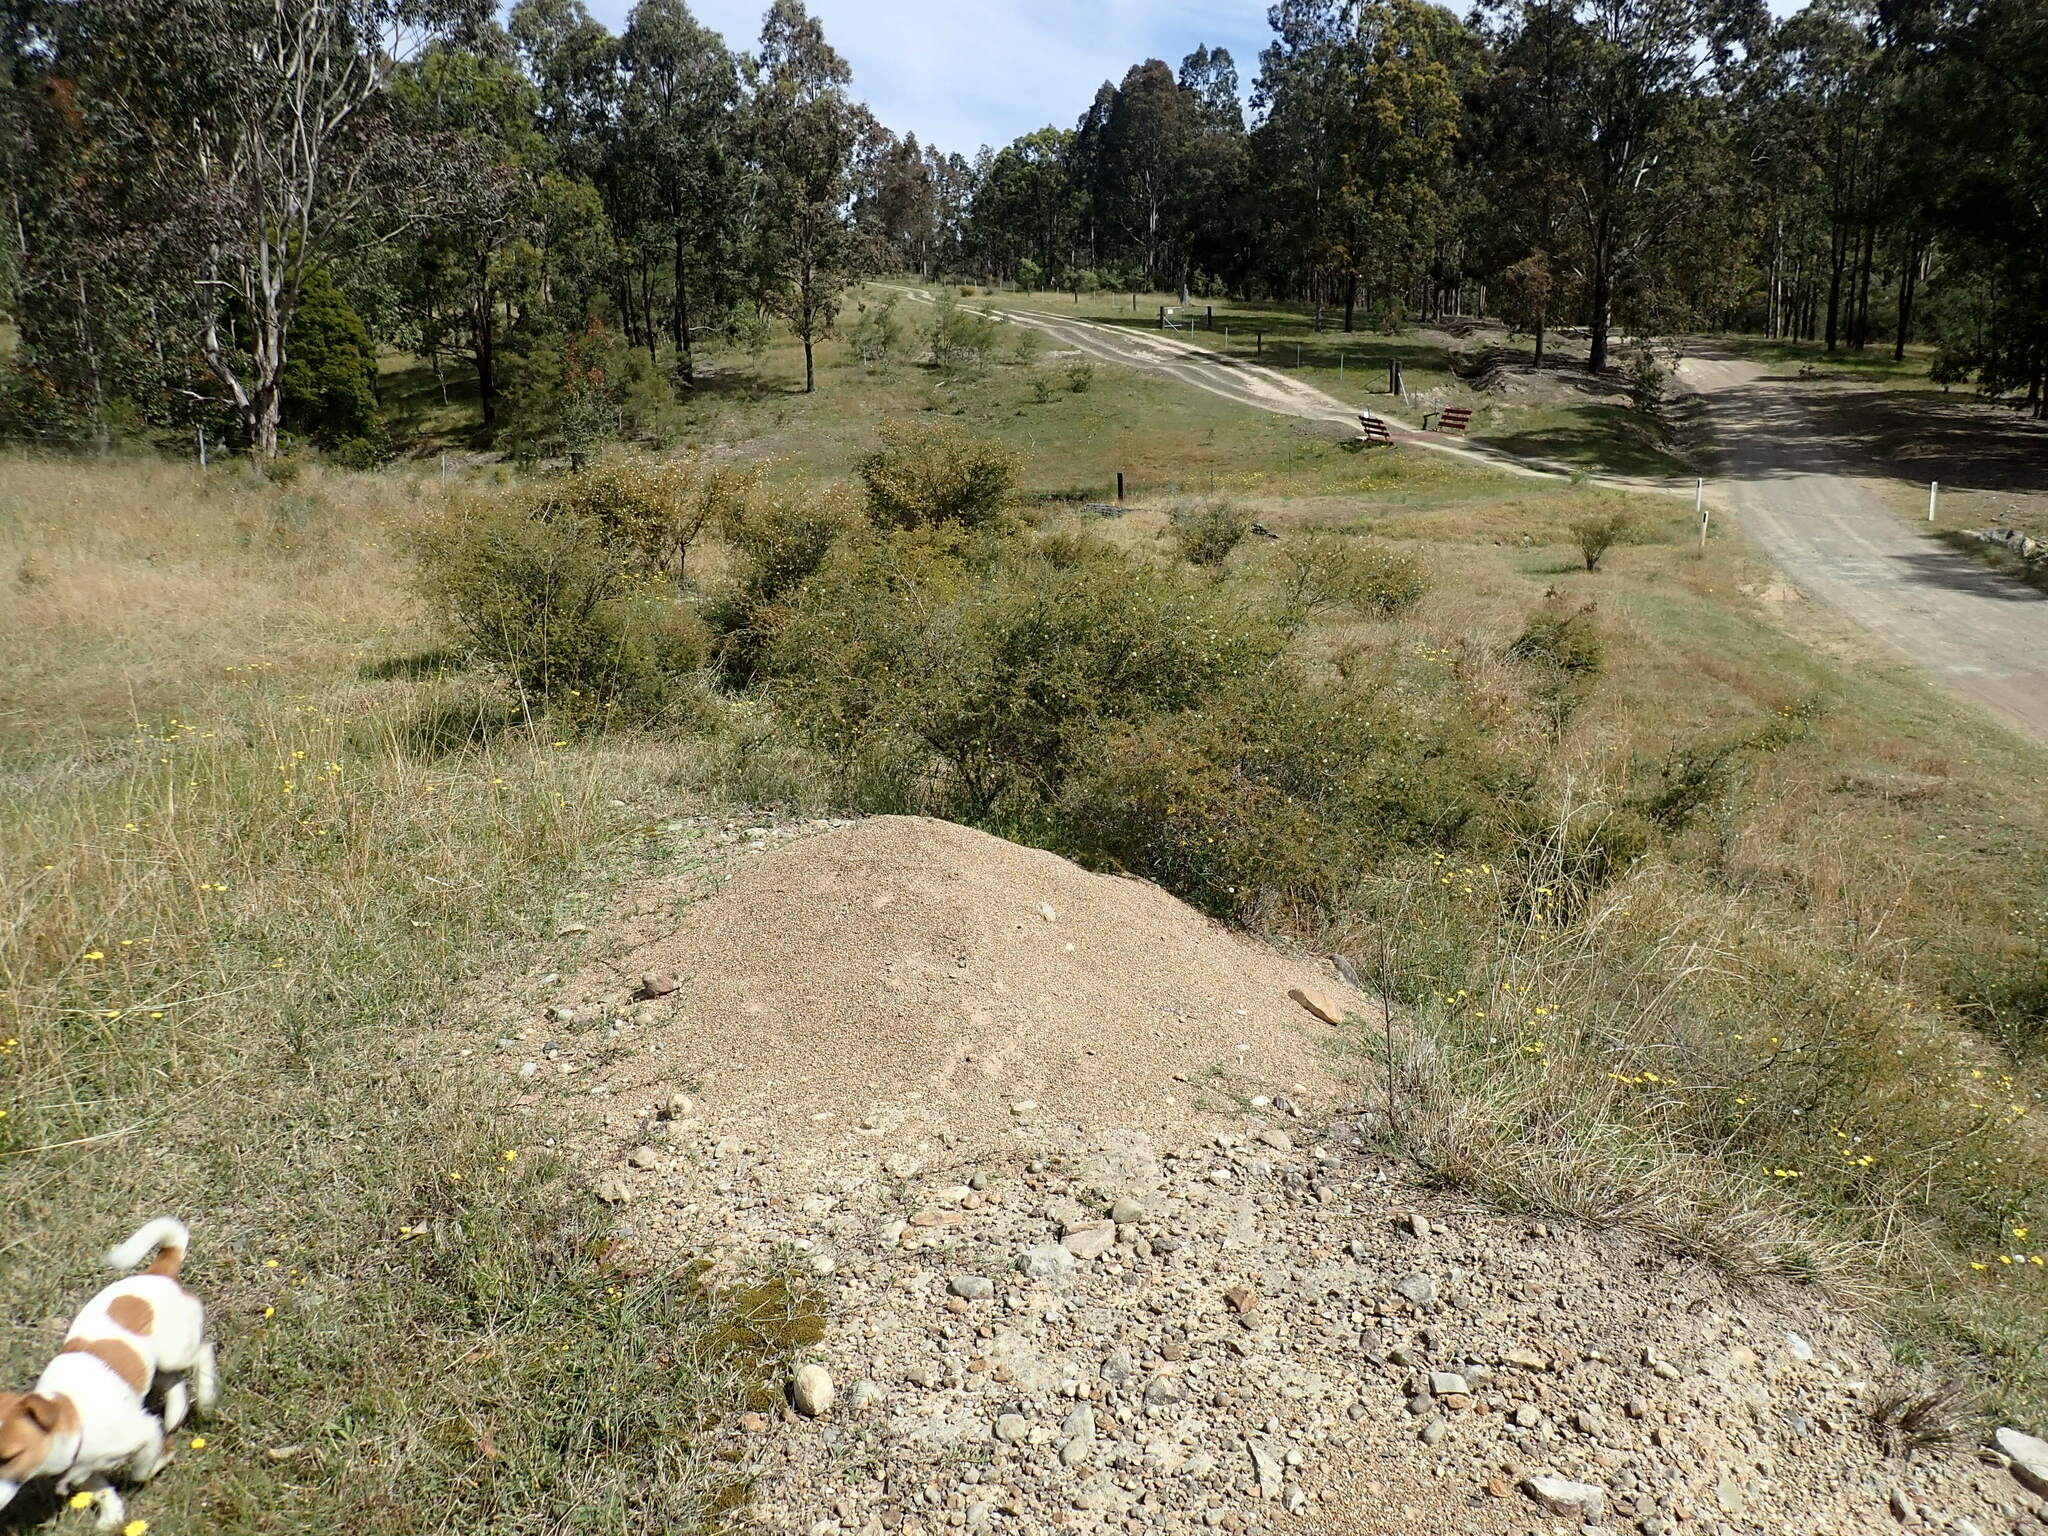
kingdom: Plantae
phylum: Tracheophyta
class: Magnoliopsida
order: Fabales
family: Fabaceae
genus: Acacia
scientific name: Acacia ulicifolia
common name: Juniper wattle
